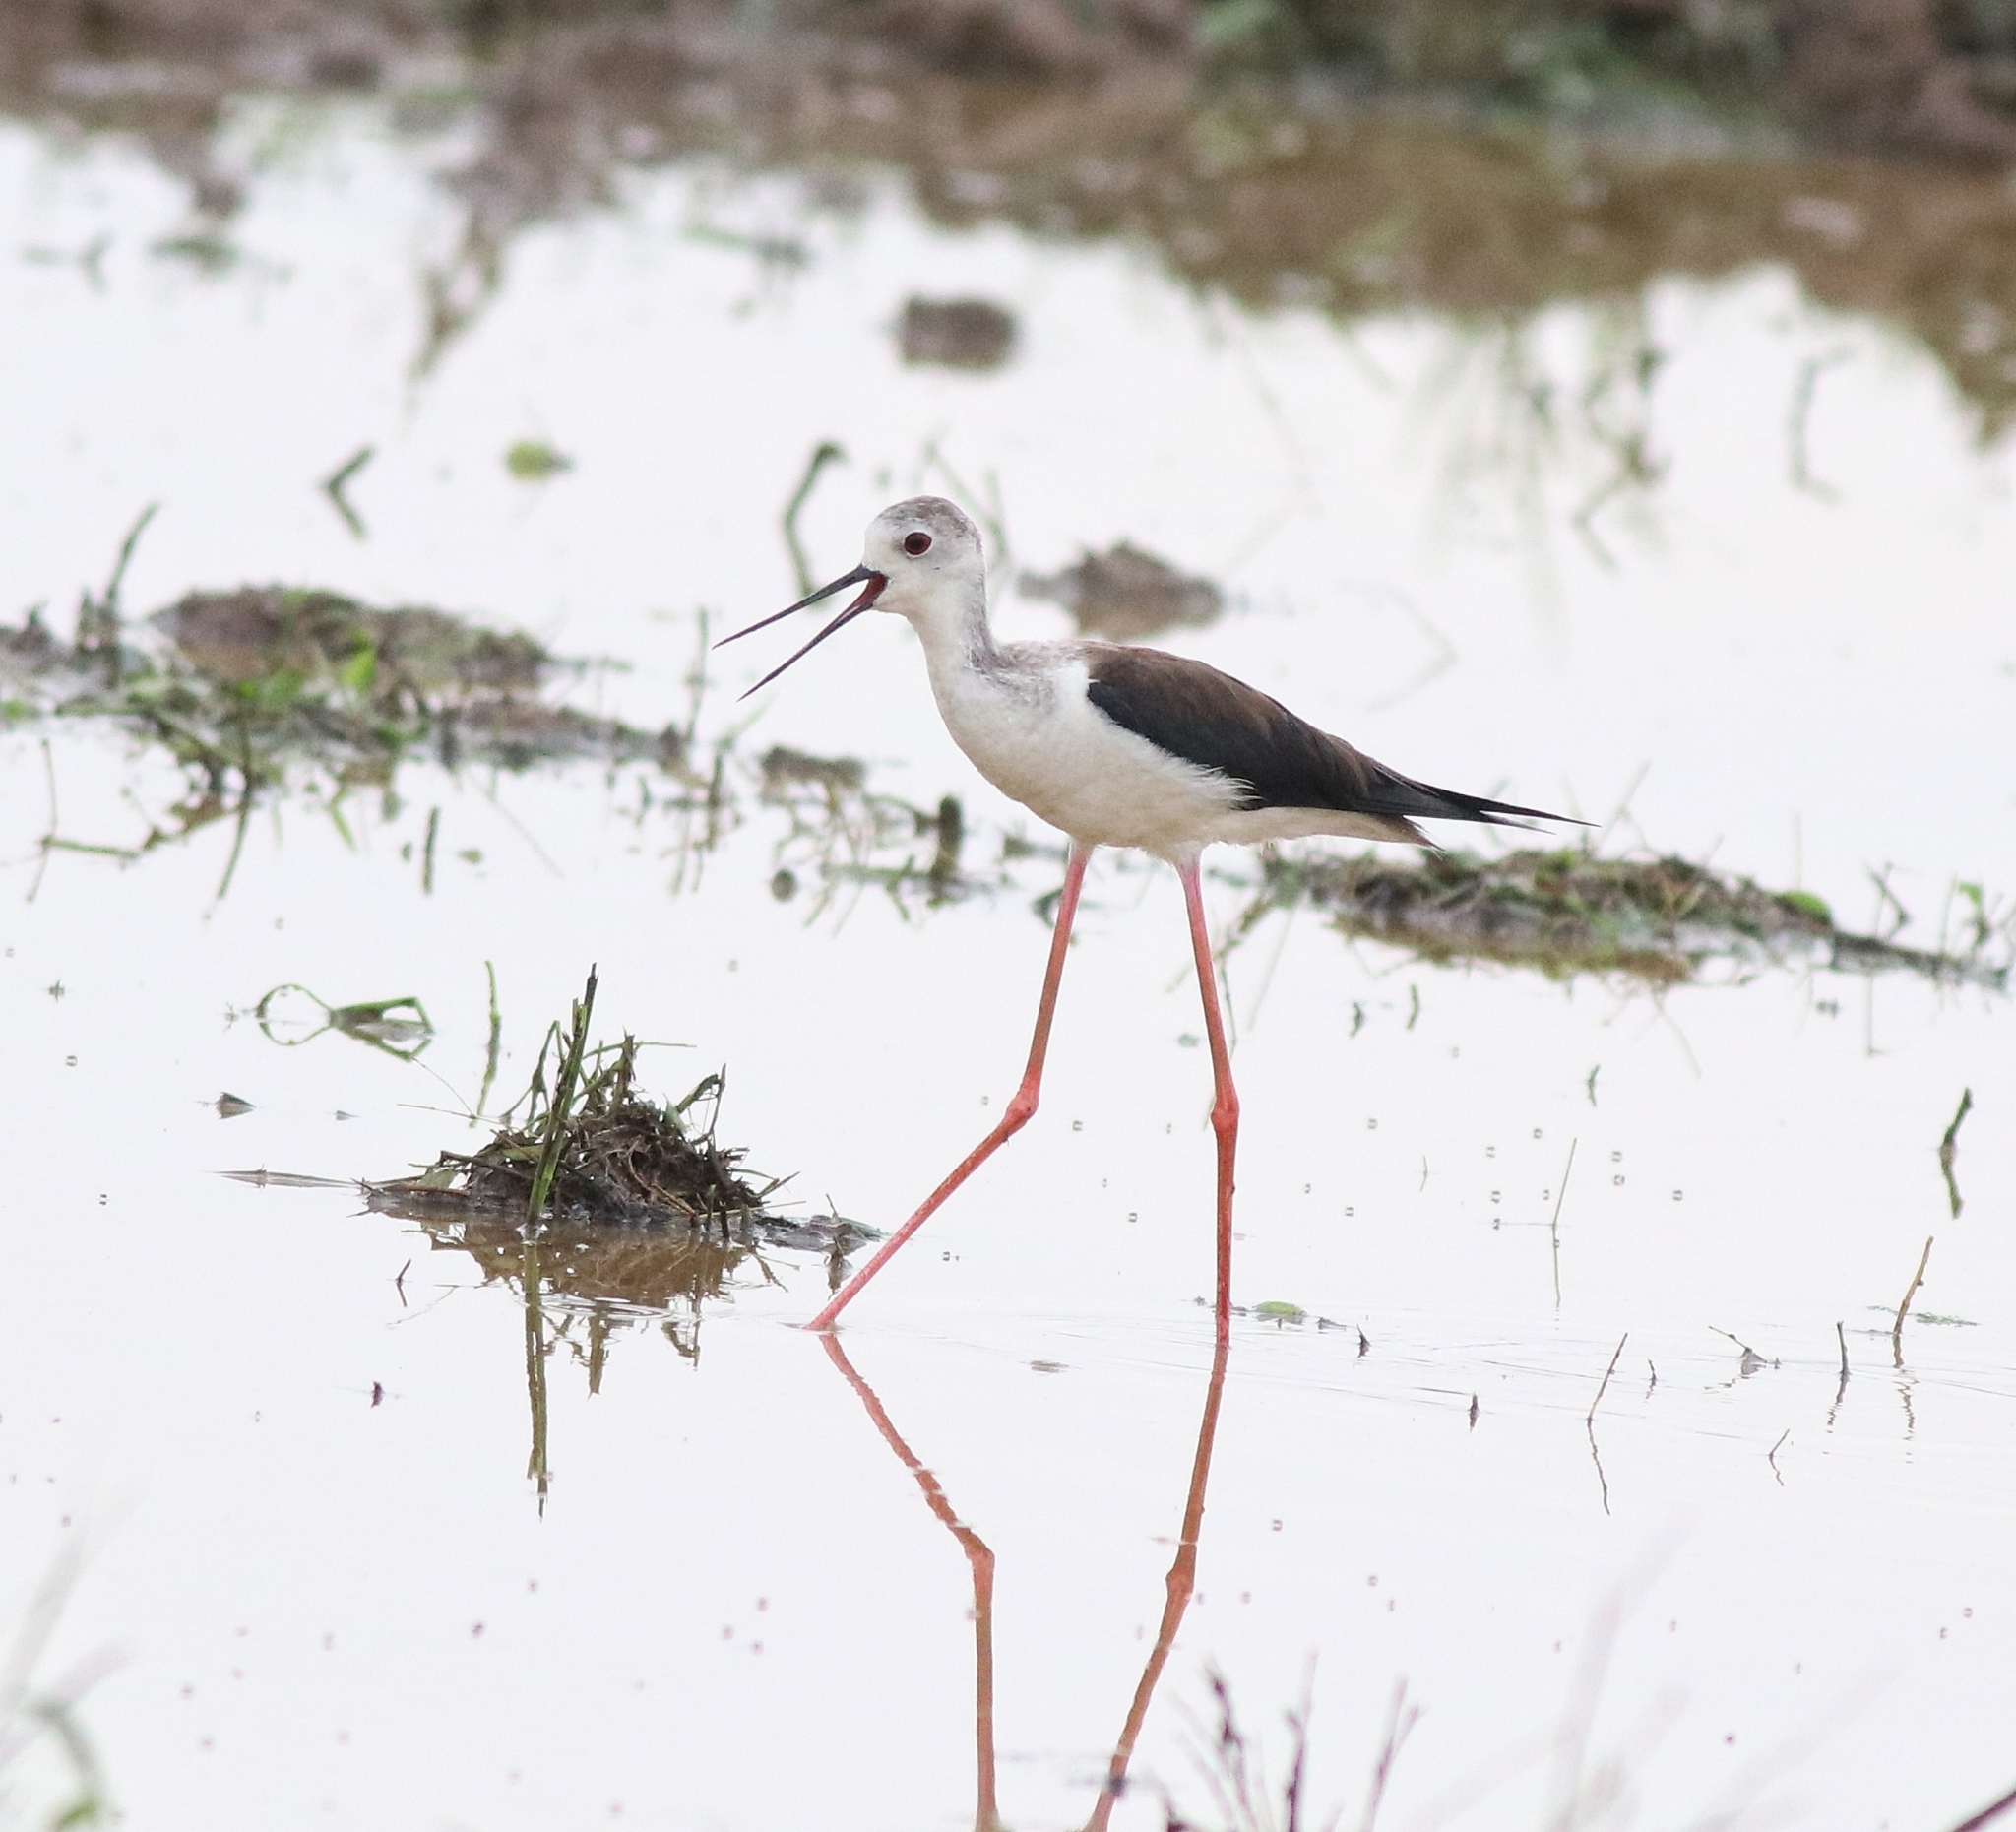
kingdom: Animalia
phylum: Chordata
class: Aves
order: Charadriiformes
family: Recurvirostridae
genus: Himantopus
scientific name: Himantopus himantopus
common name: Black-winged stilt
